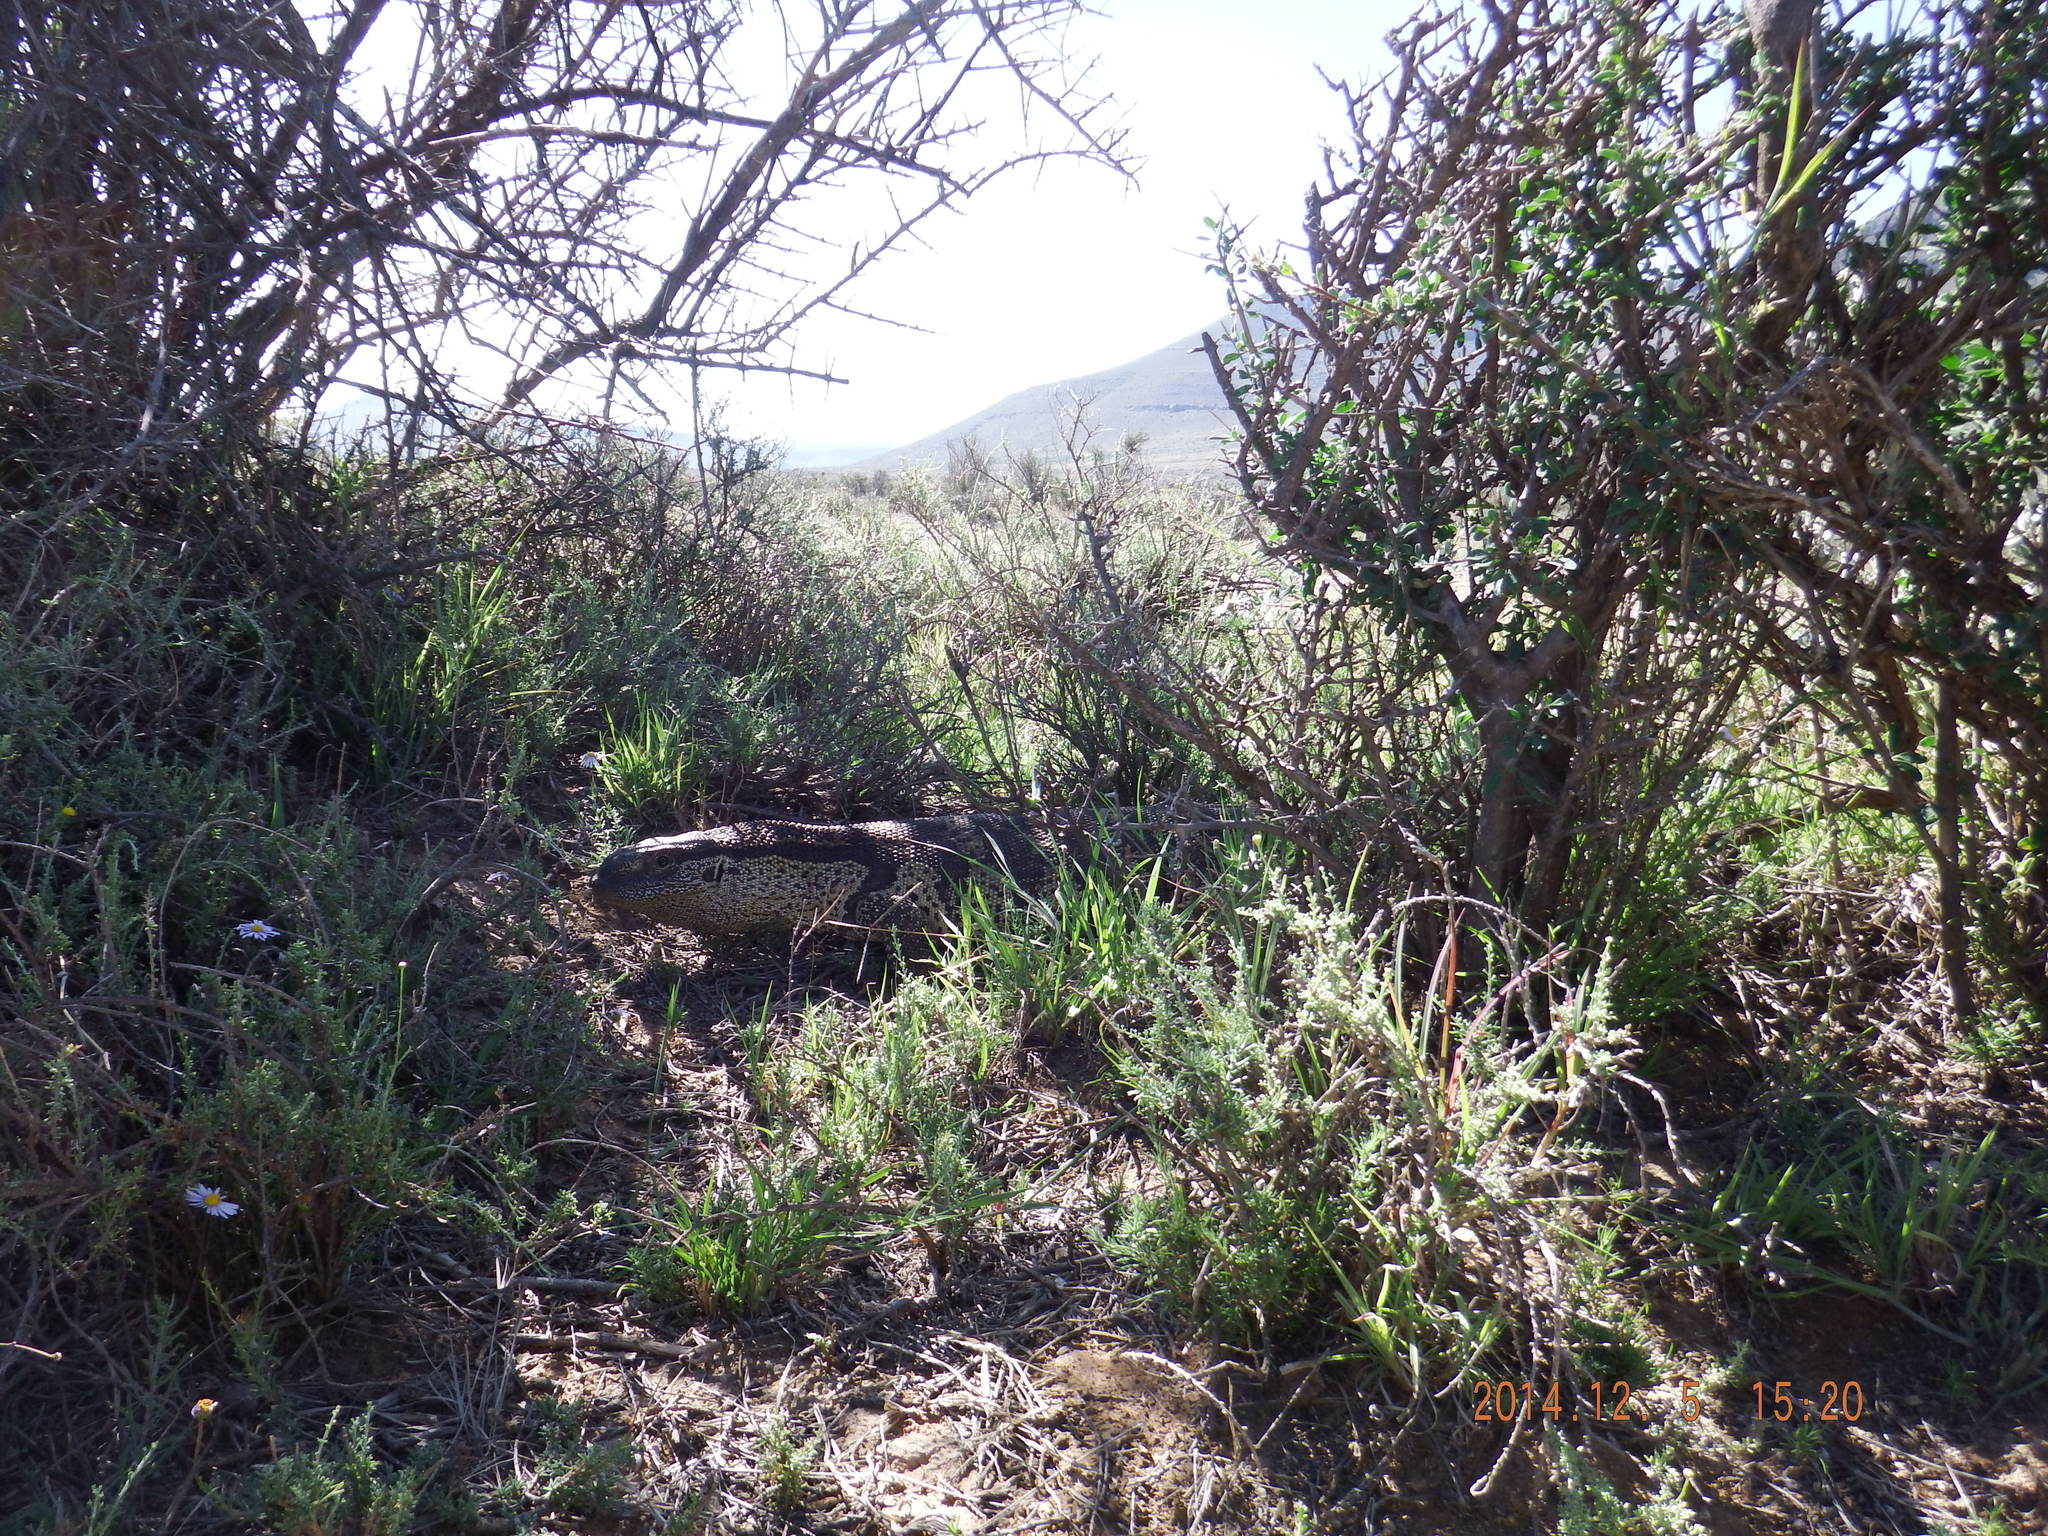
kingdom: Animalia
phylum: Chordata
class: Squamata
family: Varanidae
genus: Varanus
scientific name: Varanus albigularis
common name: White-throated monitor
